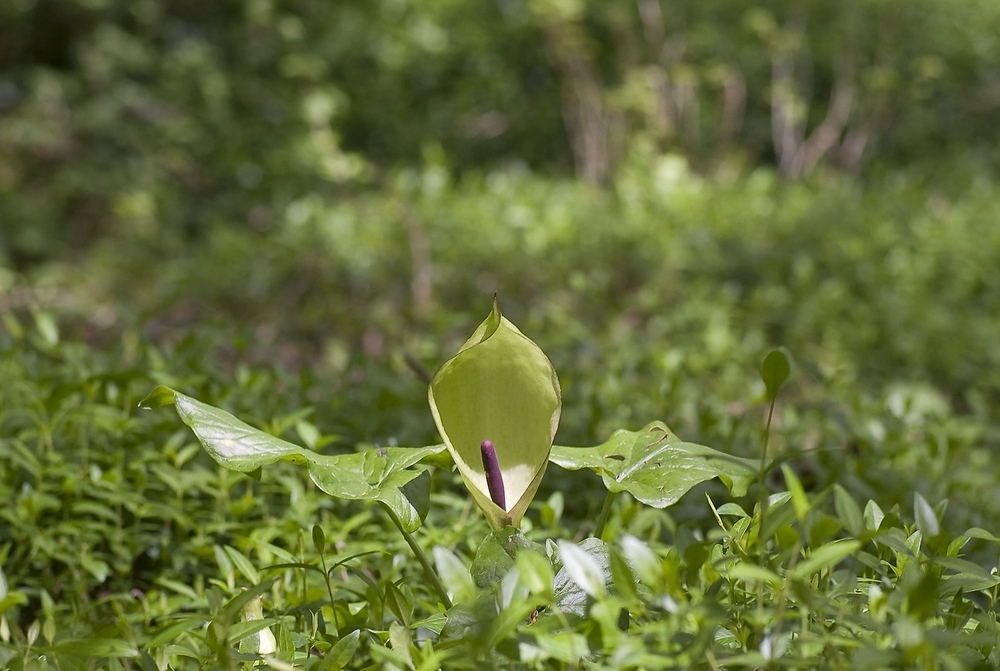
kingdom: Plantae
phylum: Tracheophyta
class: Liliopsida
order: Alismatales
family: Araceae
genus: Arum
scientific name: Arum maculatum
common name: Lords-and-ladies
